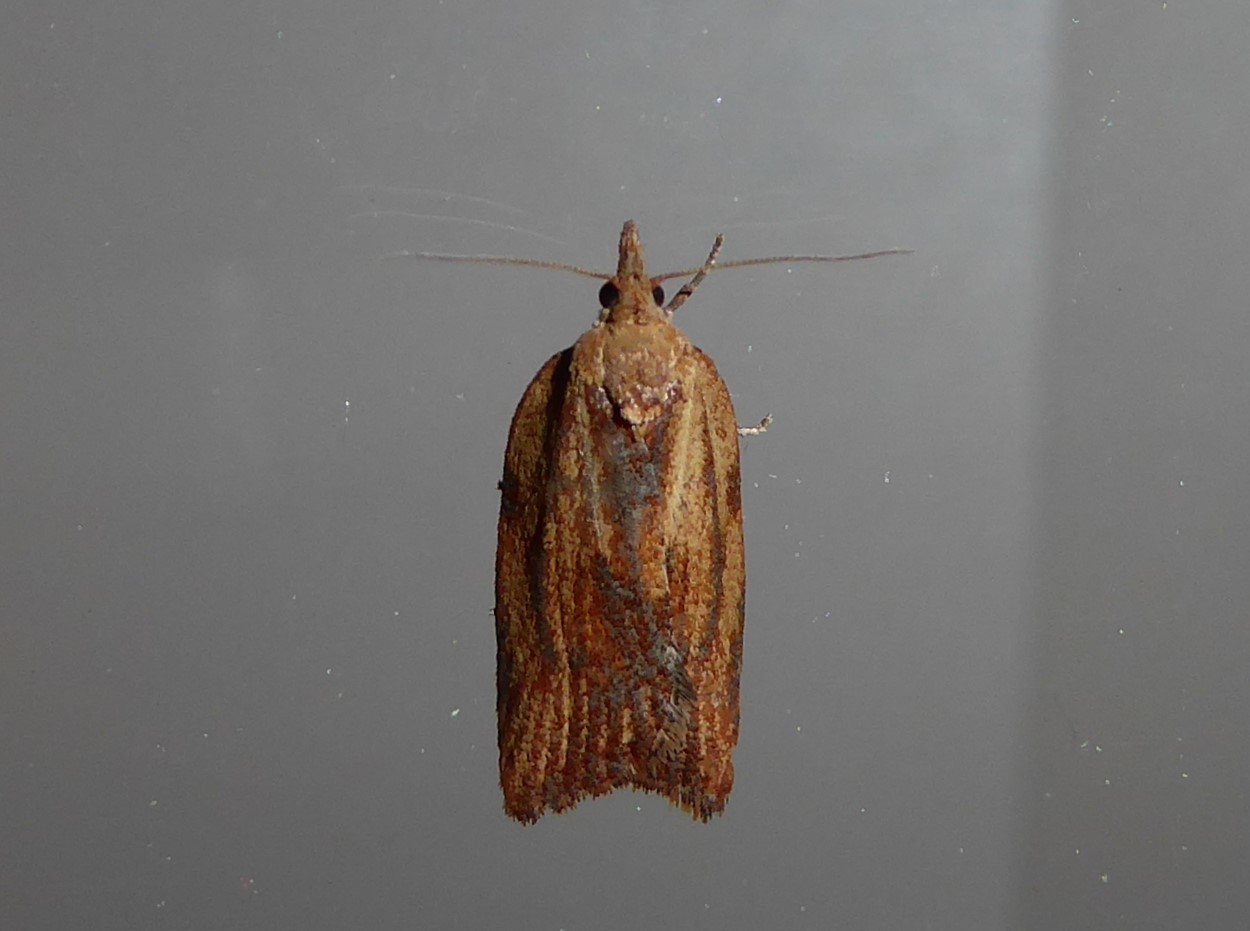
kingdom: Animalia
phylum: Arthropoda
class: Insecta
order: Lepidoptera
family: Tortricidae
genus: Epiphyas
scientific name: Epiphyas postvittana
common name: Light brown apple moth
